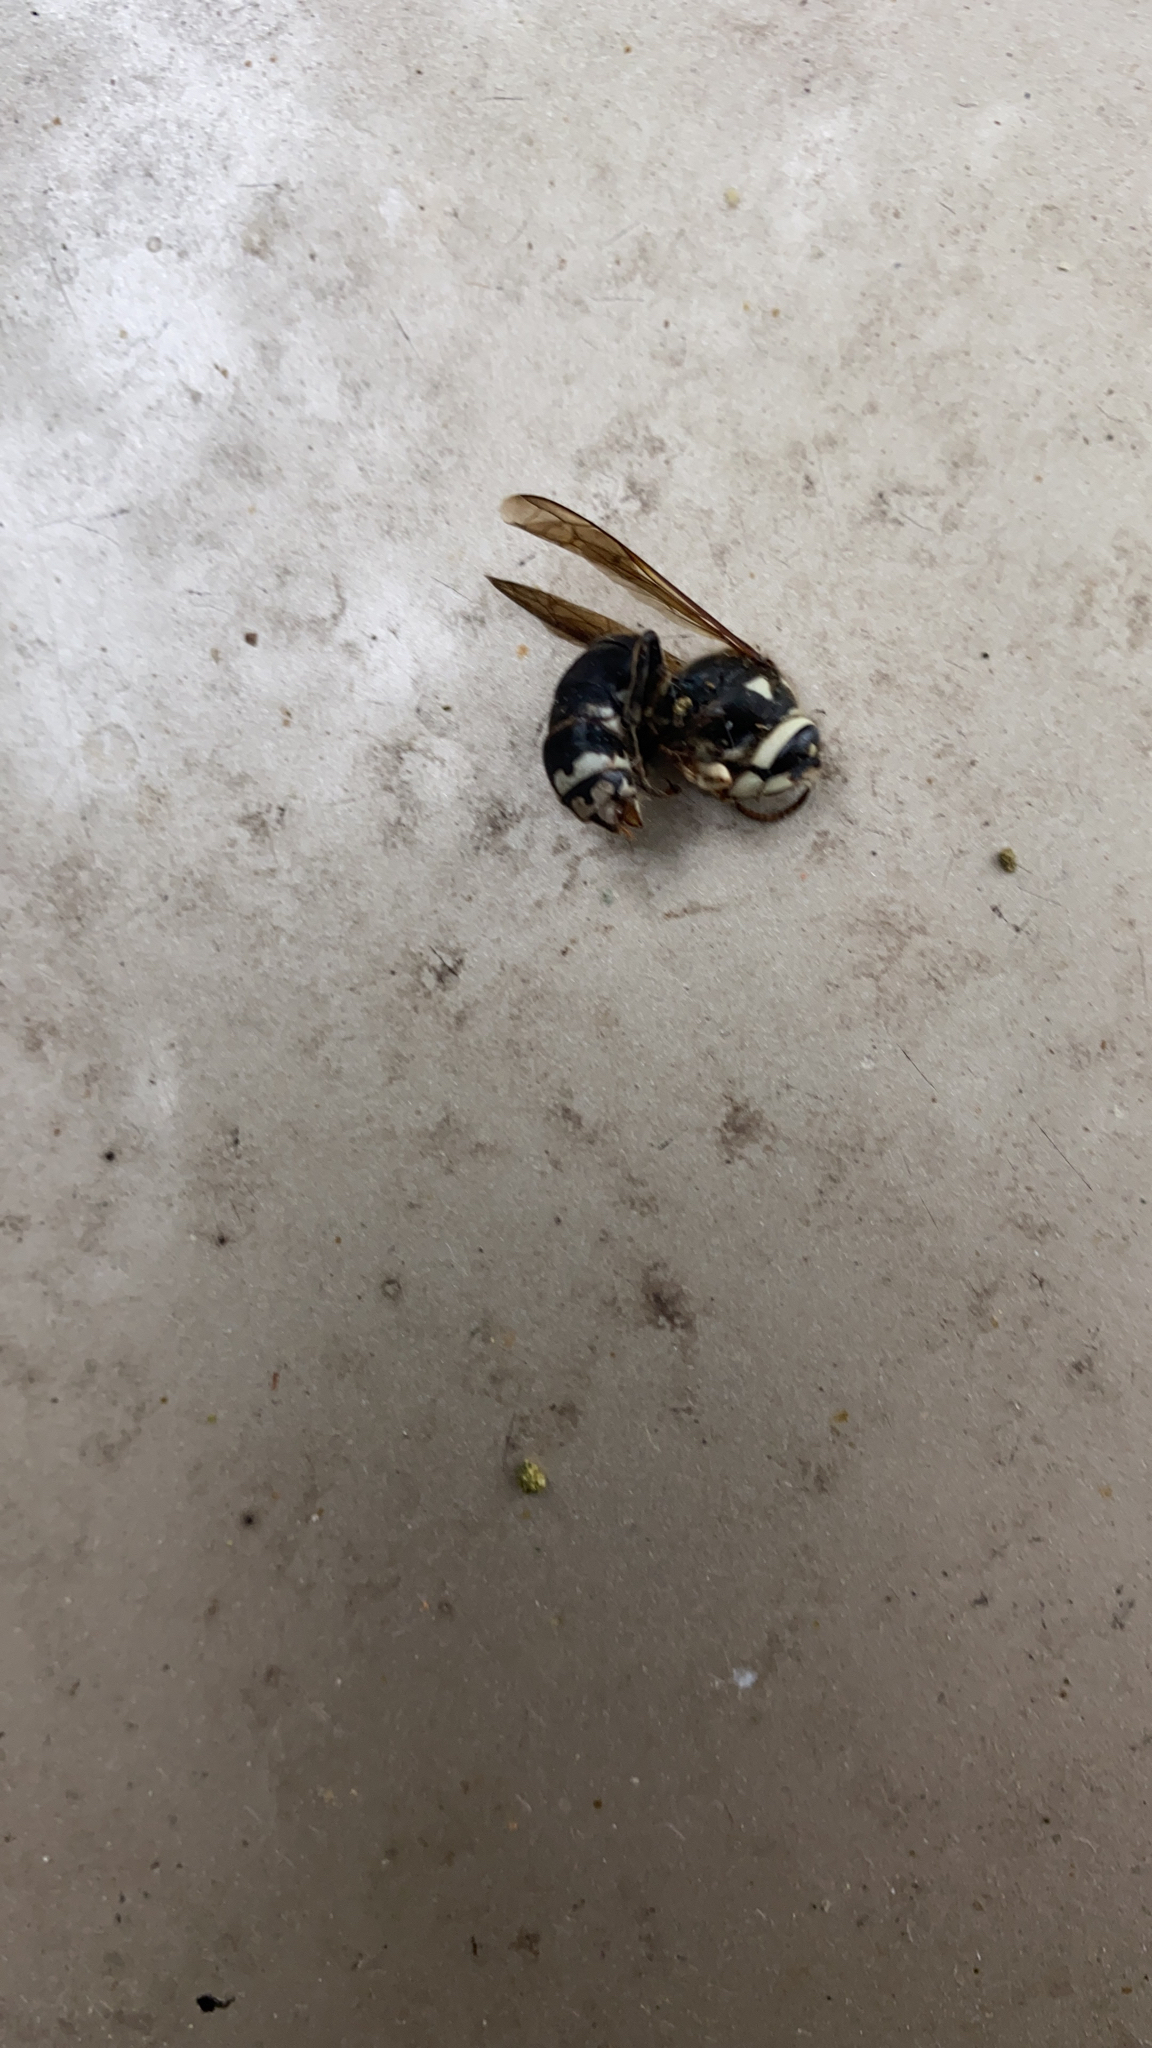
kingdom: Animalia
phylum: Arthropoda
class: Insecta
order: Hymenoptera
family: Vespidae
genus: Dolichovespula
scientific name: Dolichovespula maculata
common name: Bald-faced hornet
